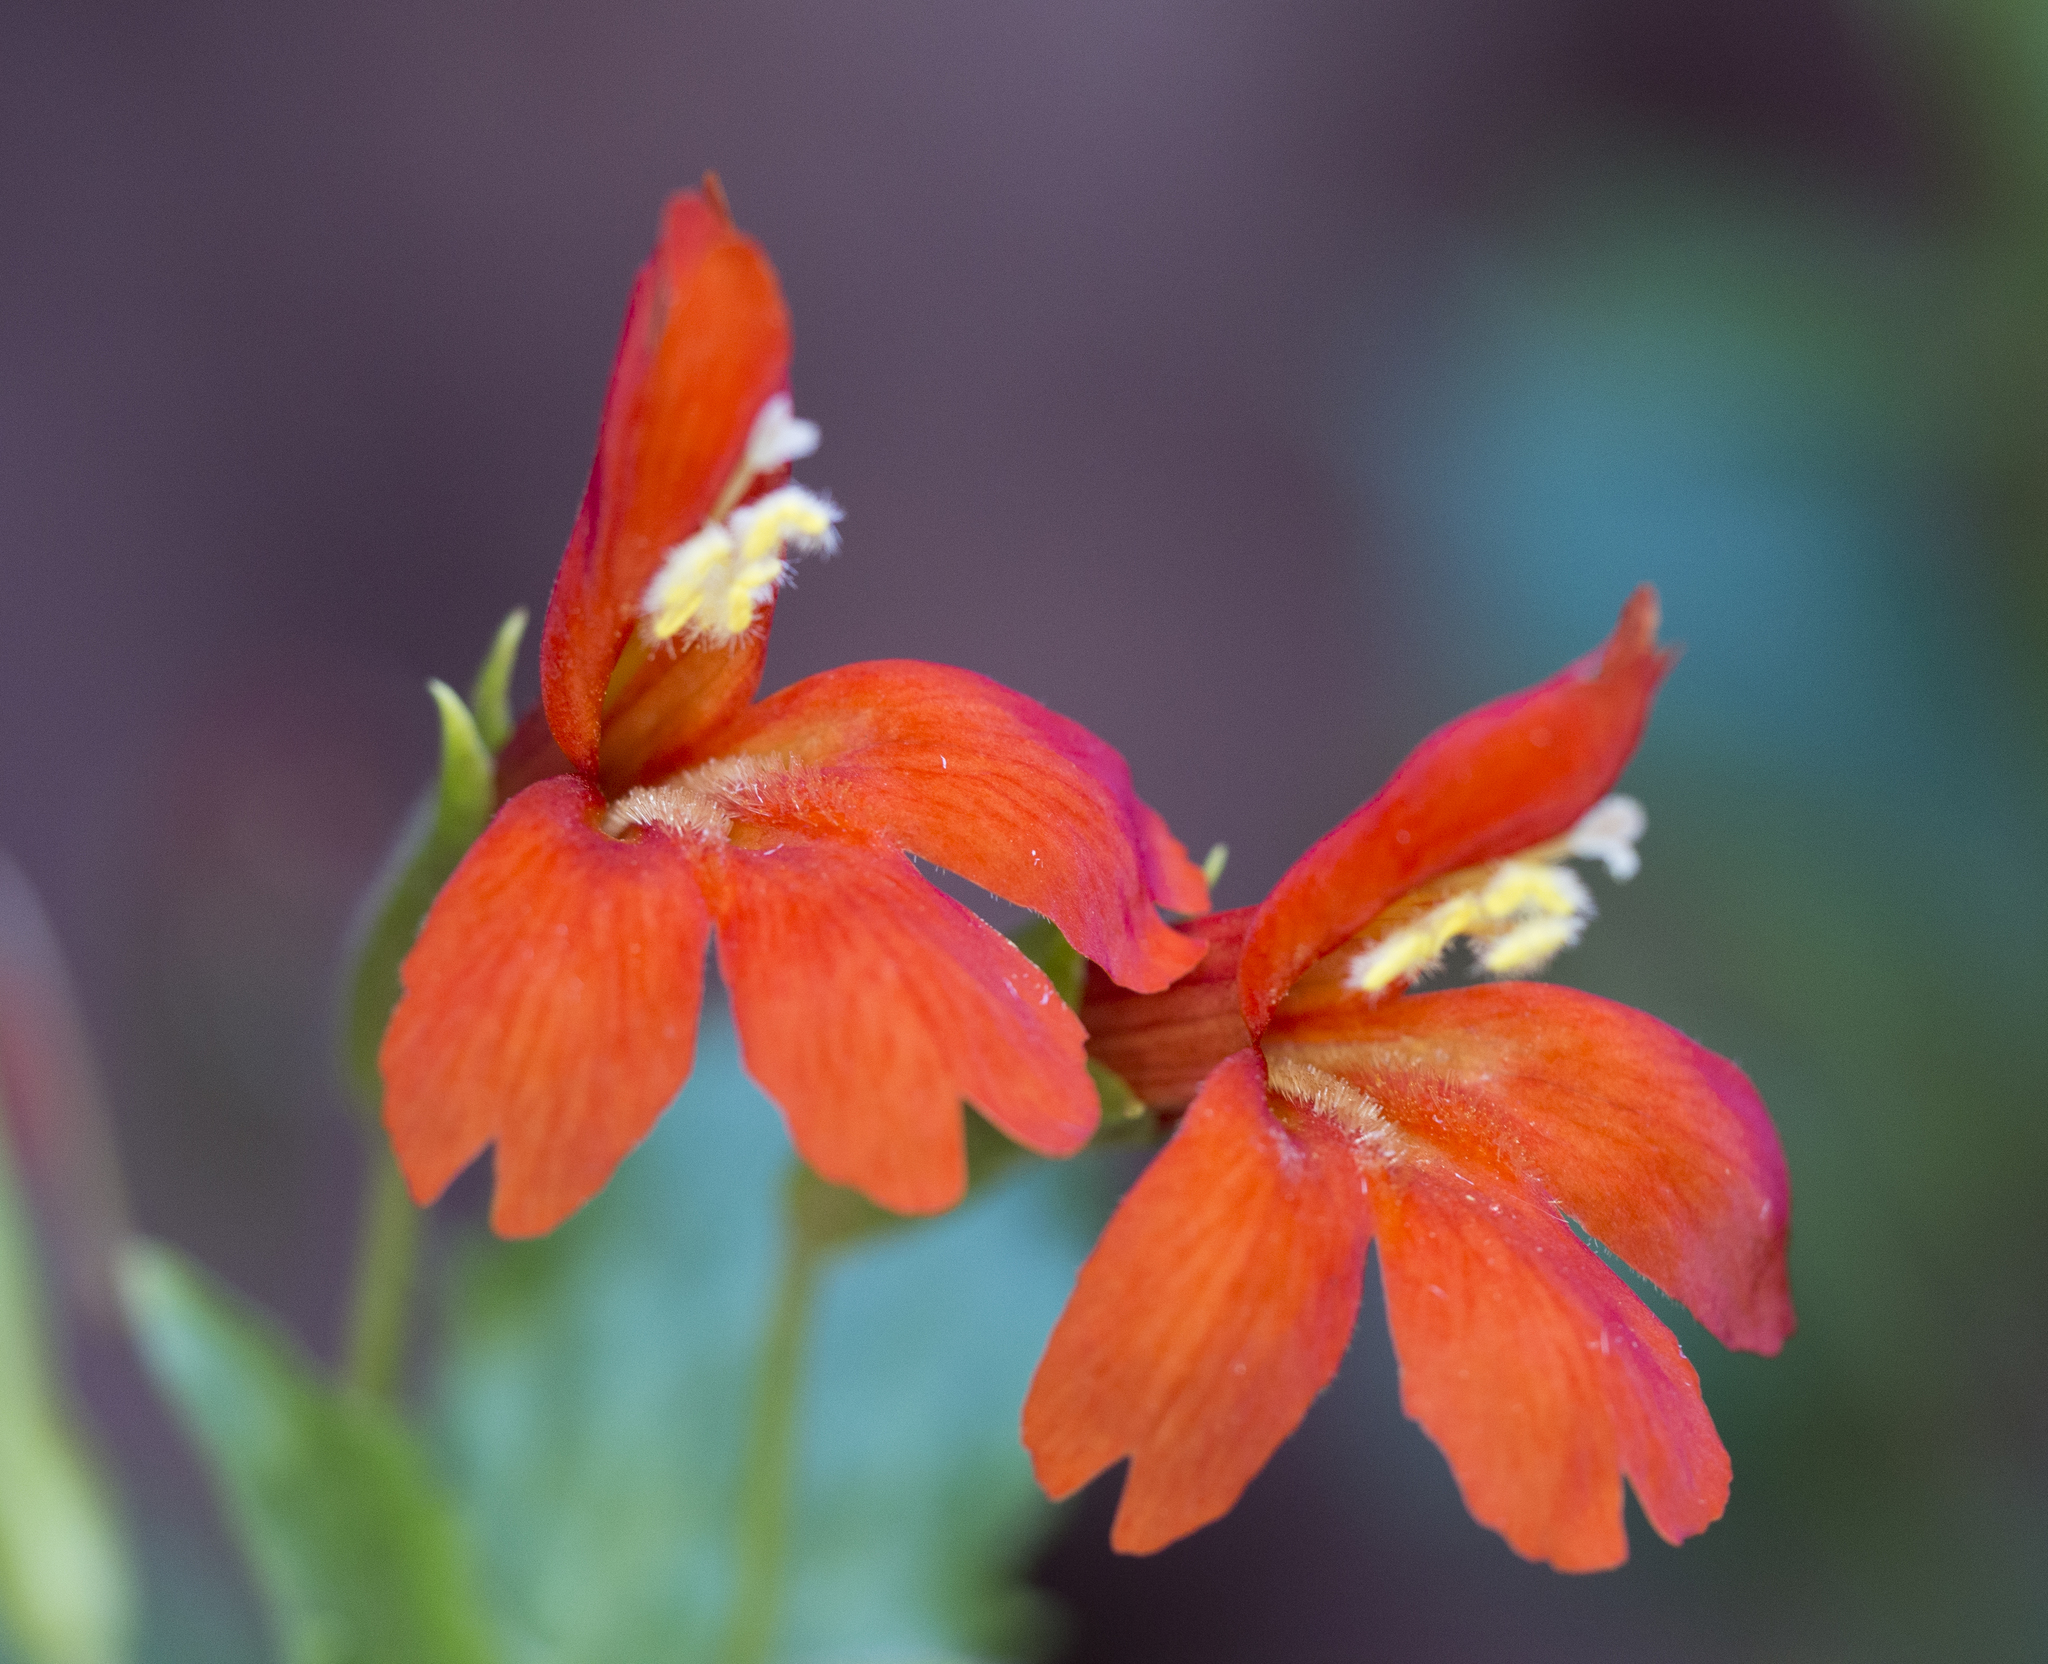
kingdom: Plantae
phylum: Tracheophyta
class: Magnoliopsida
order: Lamiales
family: Phrymaceae
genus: Erythranthe
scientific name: Erythranthe verbenacea
